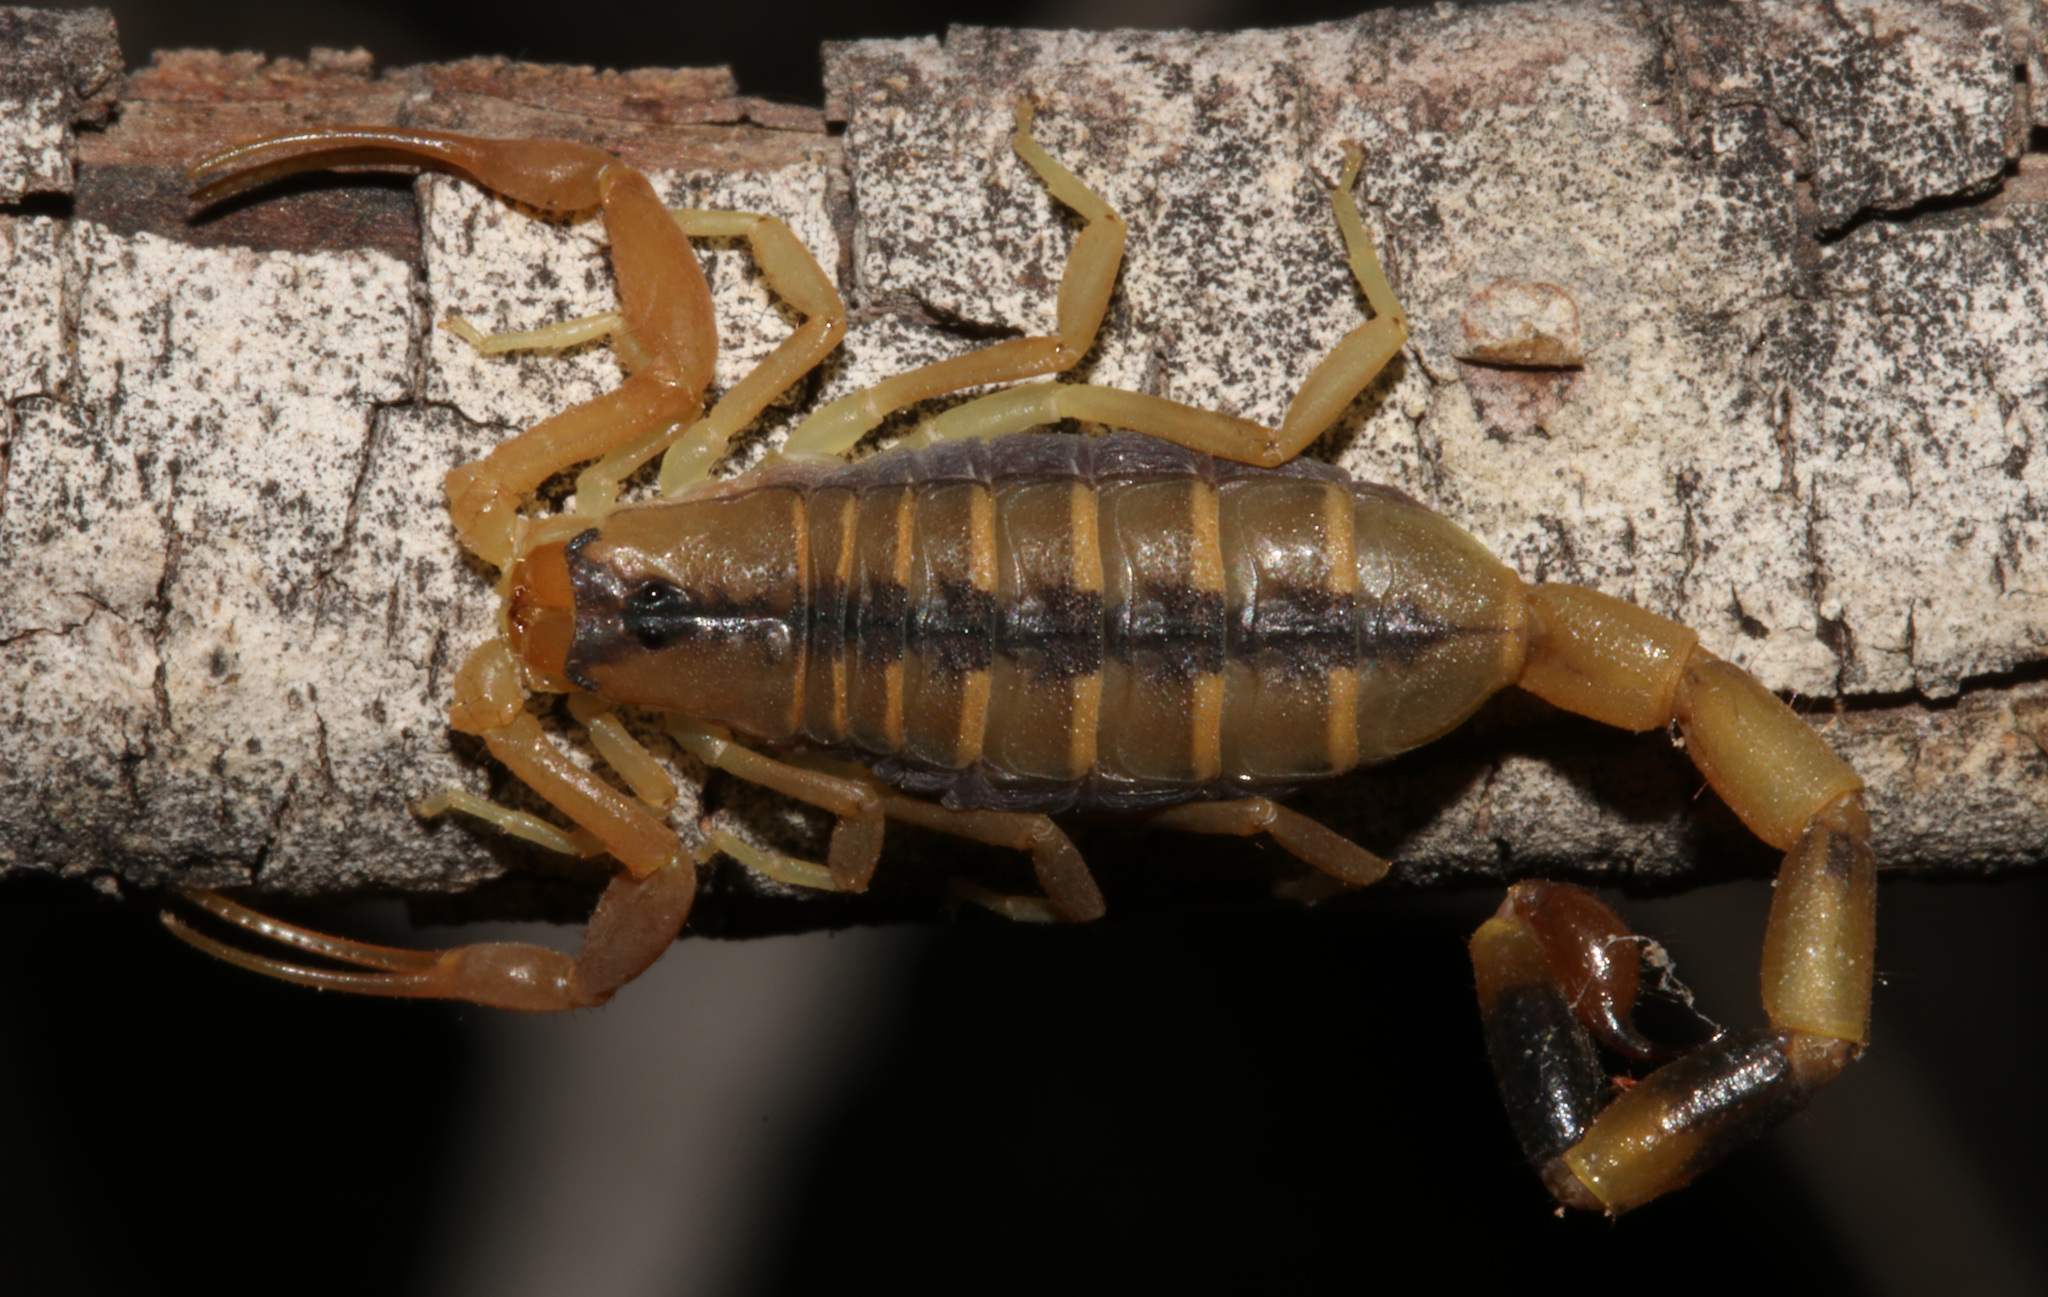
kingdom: Animalia
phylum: Arthropoda
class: Arachnida
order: Scorpiones
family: Buthidae
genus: Uroplectes
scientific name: Uroplectes otjimbinguensis
